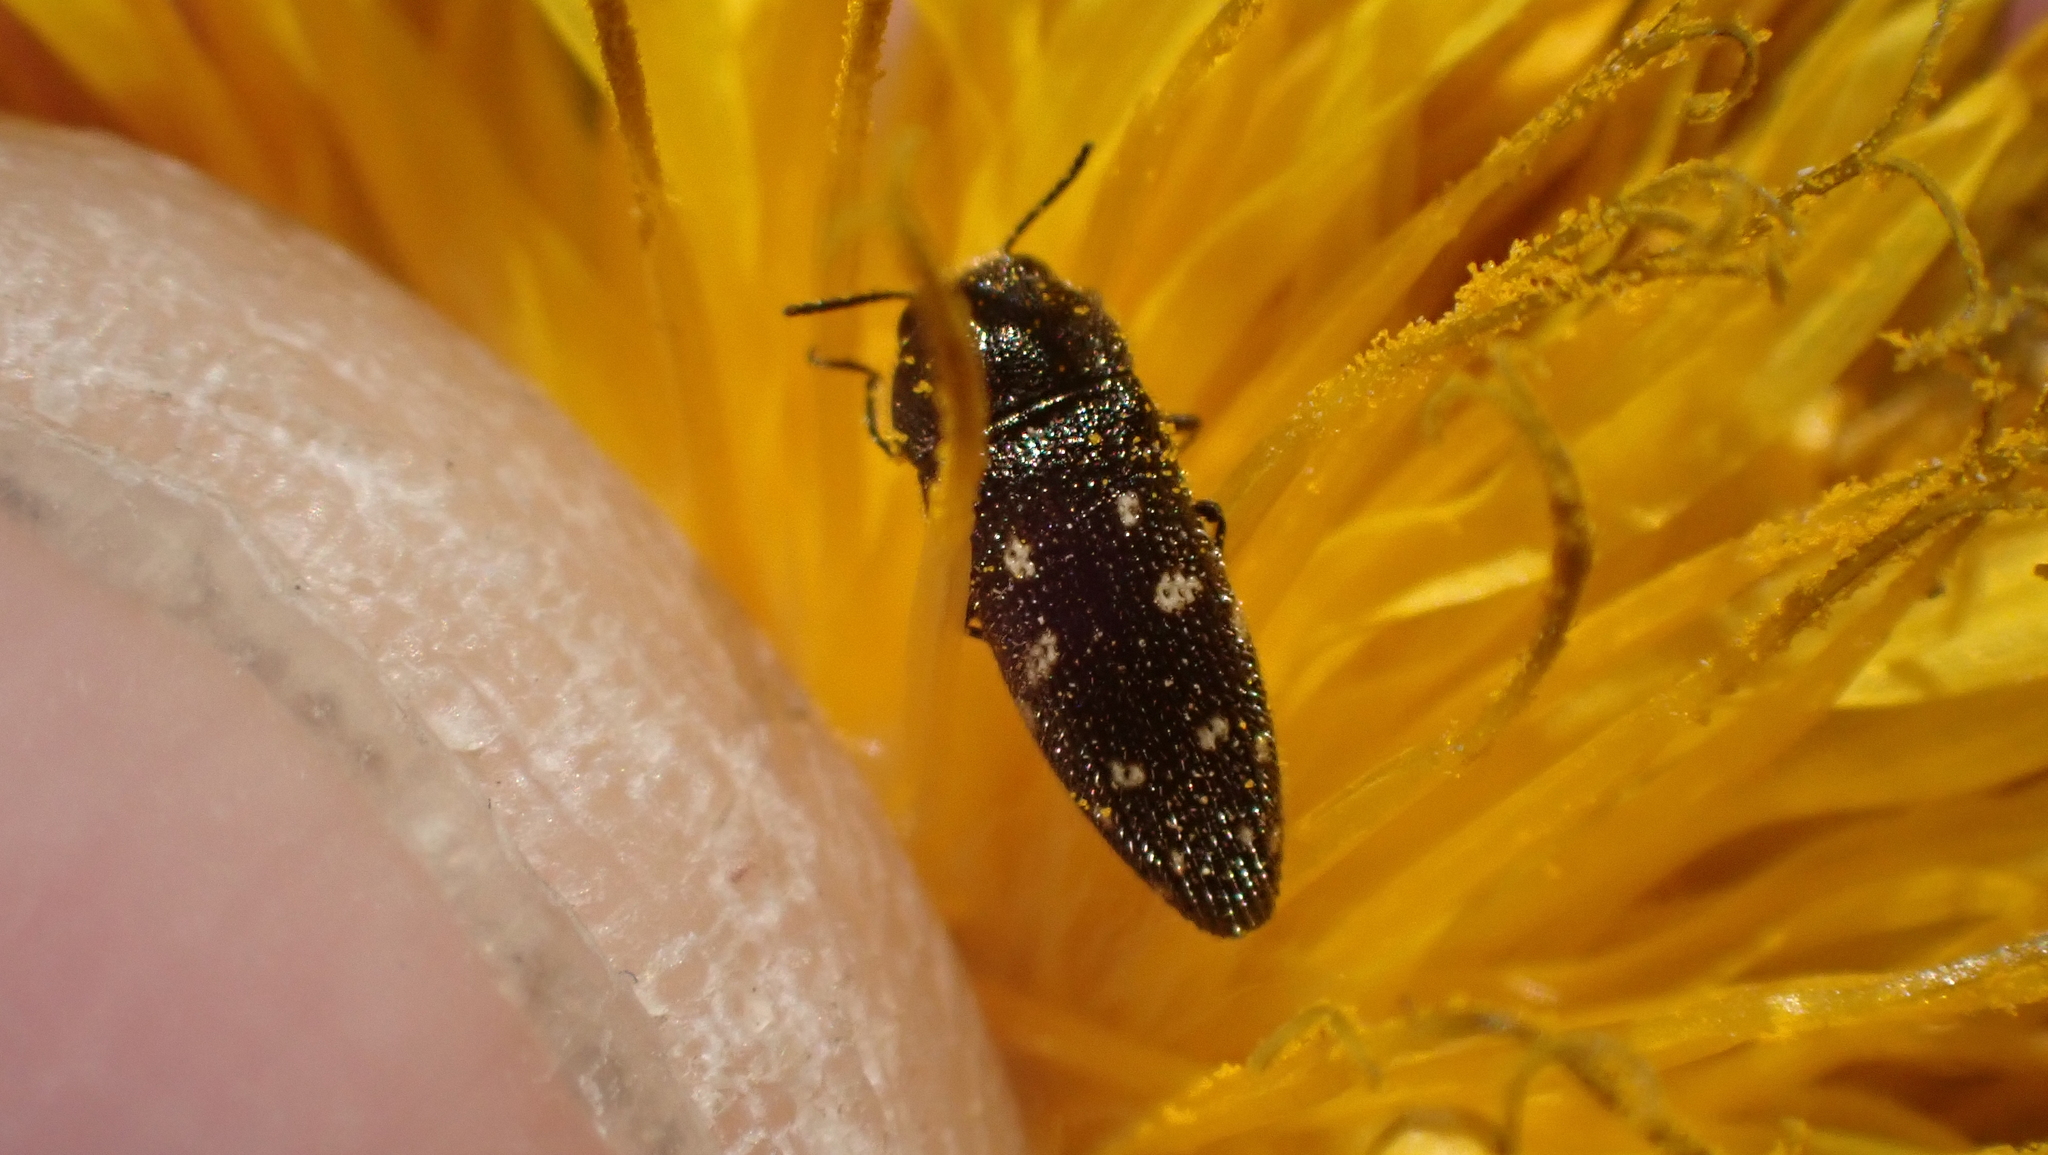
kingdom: Animalia
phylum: Arthropoda
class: Insecta
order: Coleoptera
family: Buprestidae
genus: Acmaeodera
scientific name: Acmaeodera tubulus
